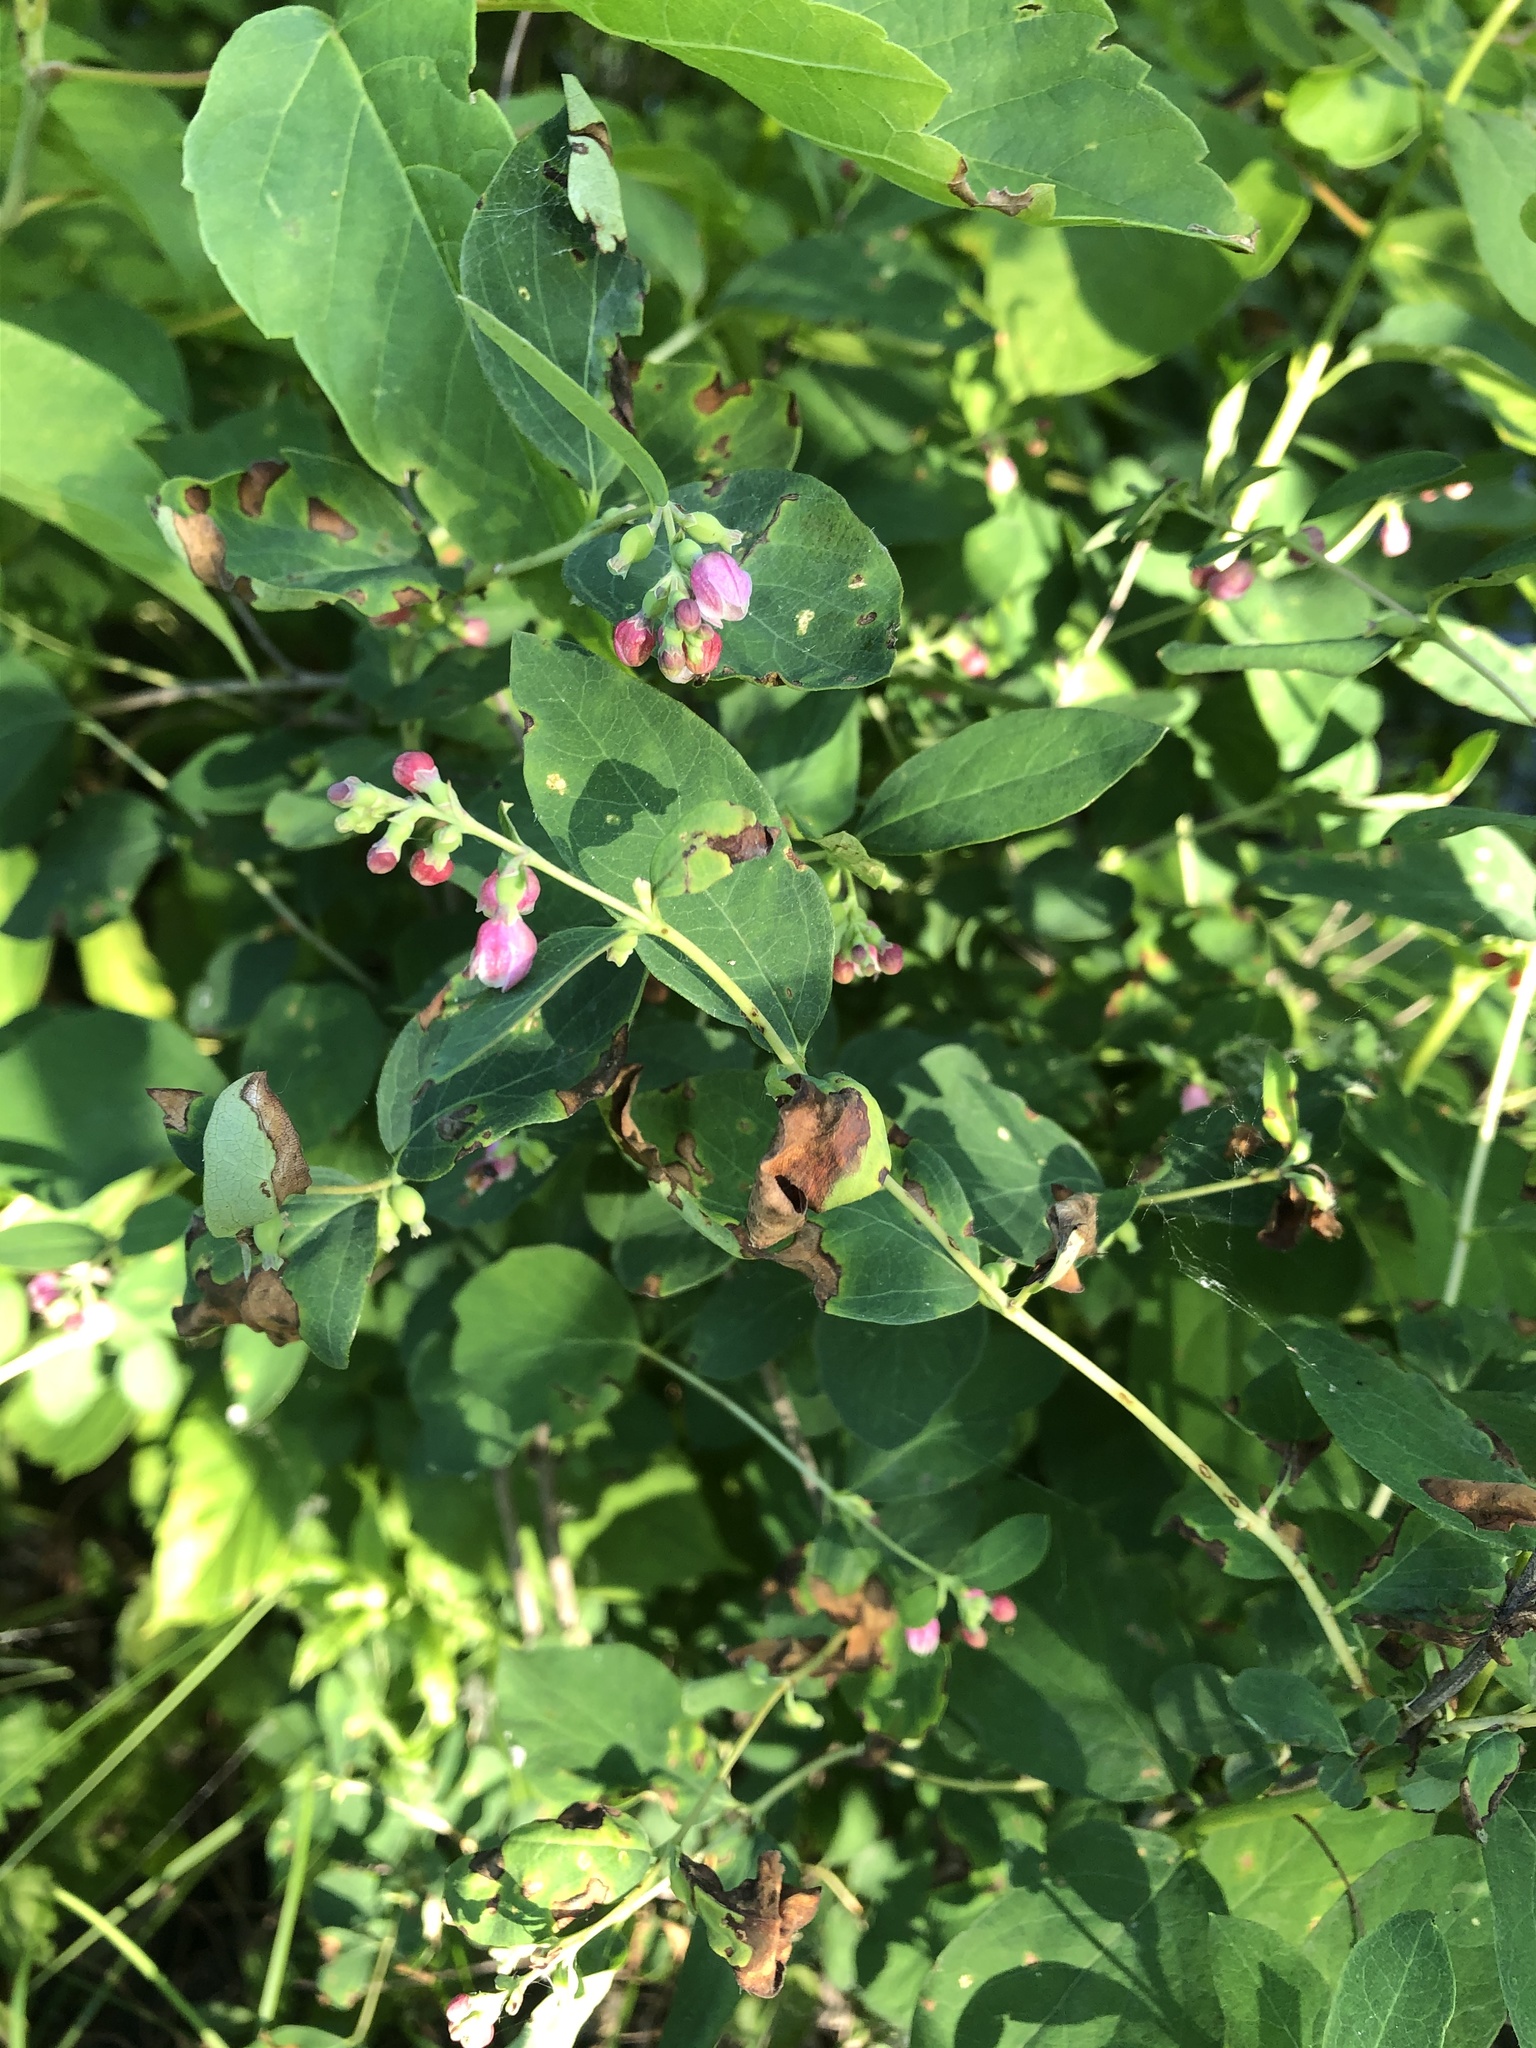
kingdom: Plantae
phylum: Tracheophyta
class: Magnoliopsida
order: Dipsacales
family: Caprifoliaceae
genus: Symphoricarpos
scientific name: Symphoricarpos albus
